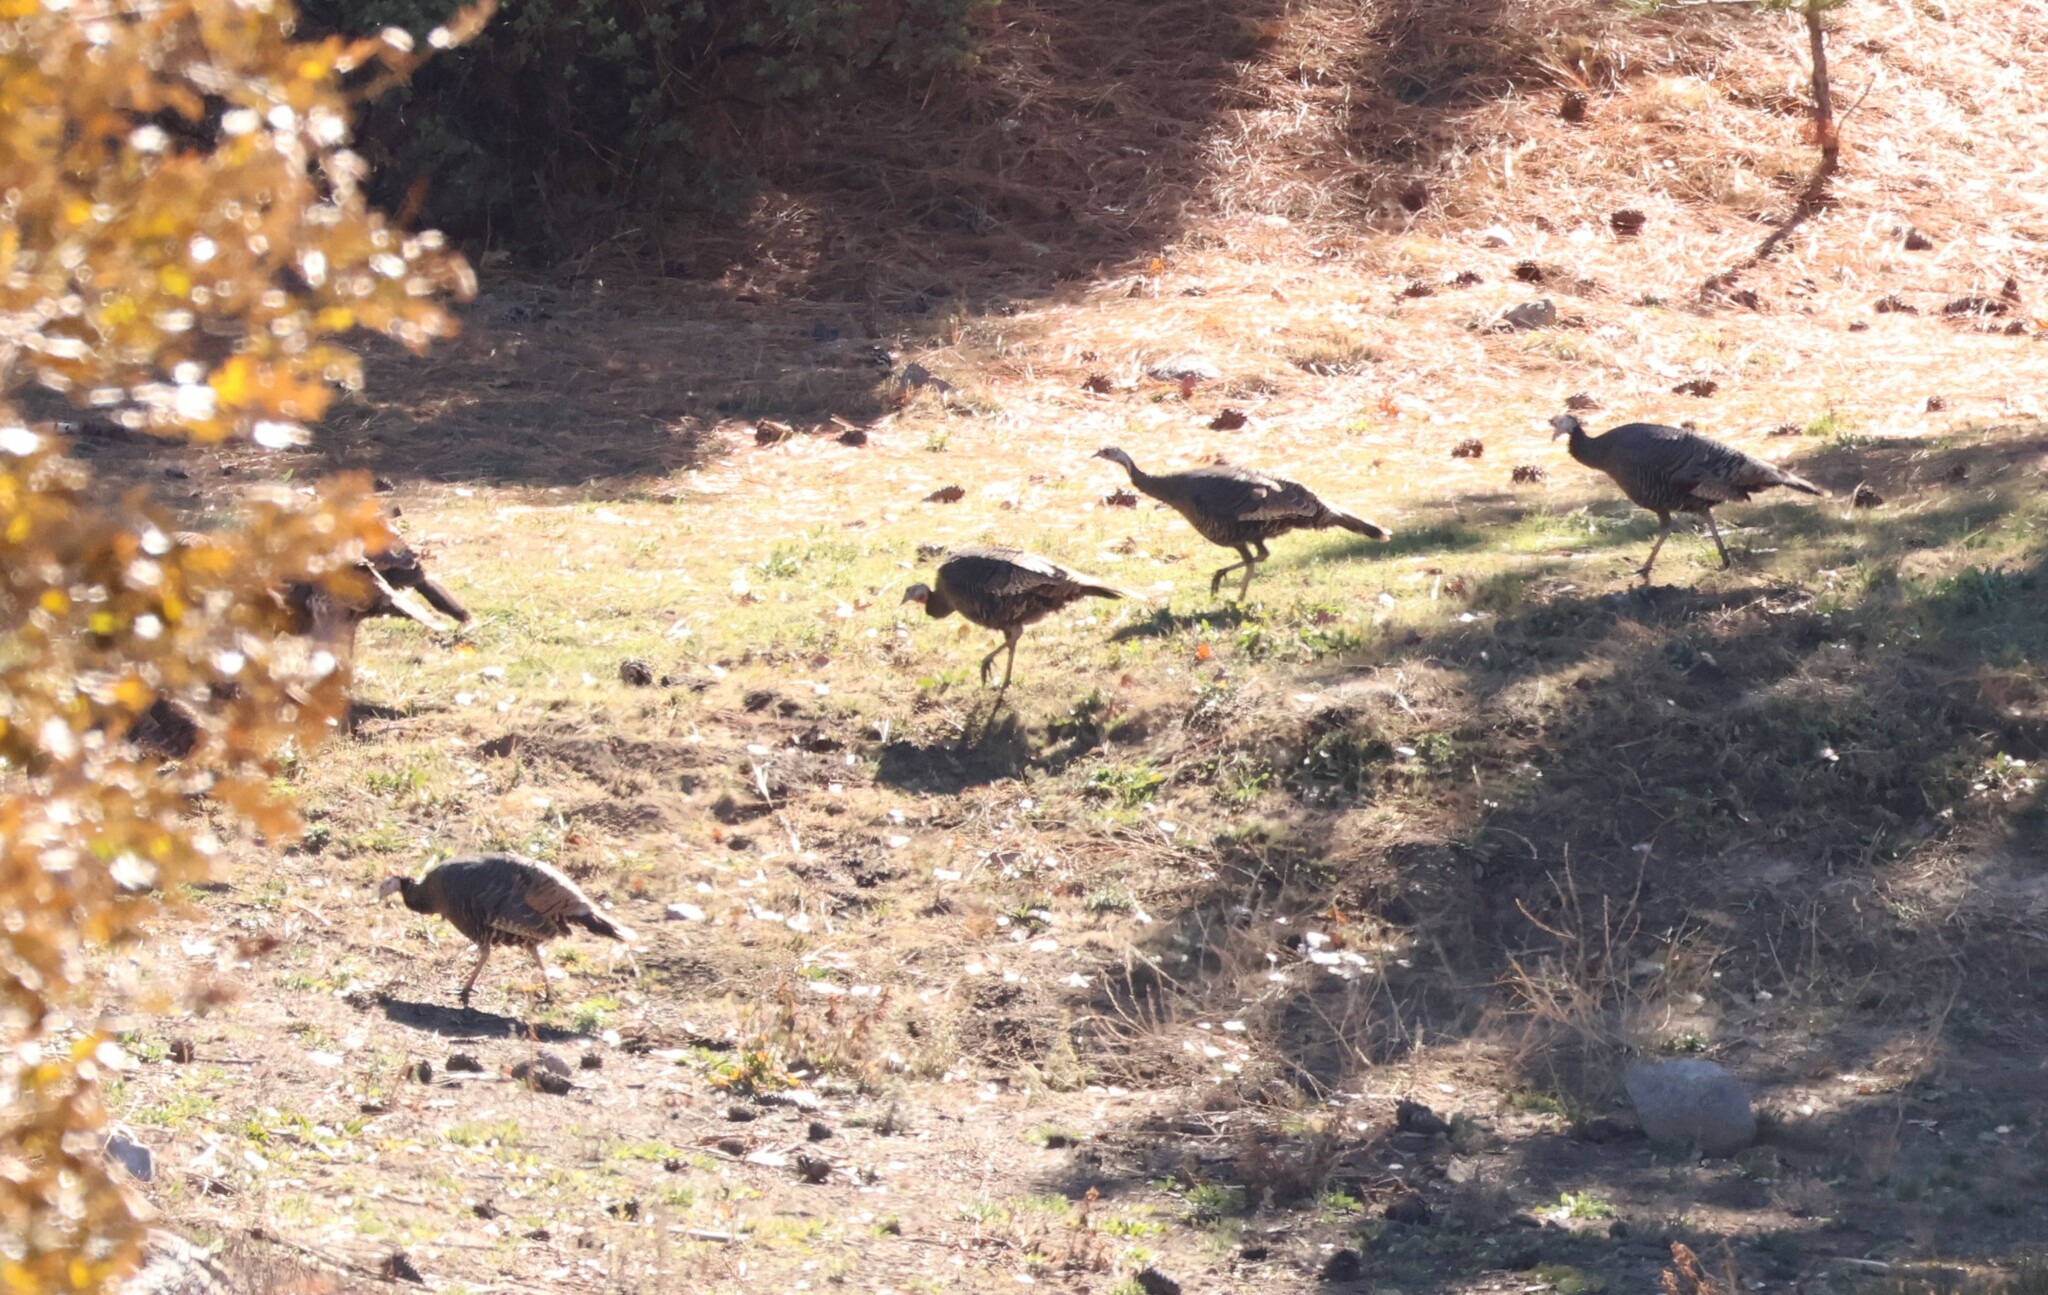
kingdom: Animalia
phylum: Chordata
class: Aves
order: Galliformes
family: Phasianidae
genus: Meleagris
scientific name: Meleagris gallopavo
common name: Wild turkey
